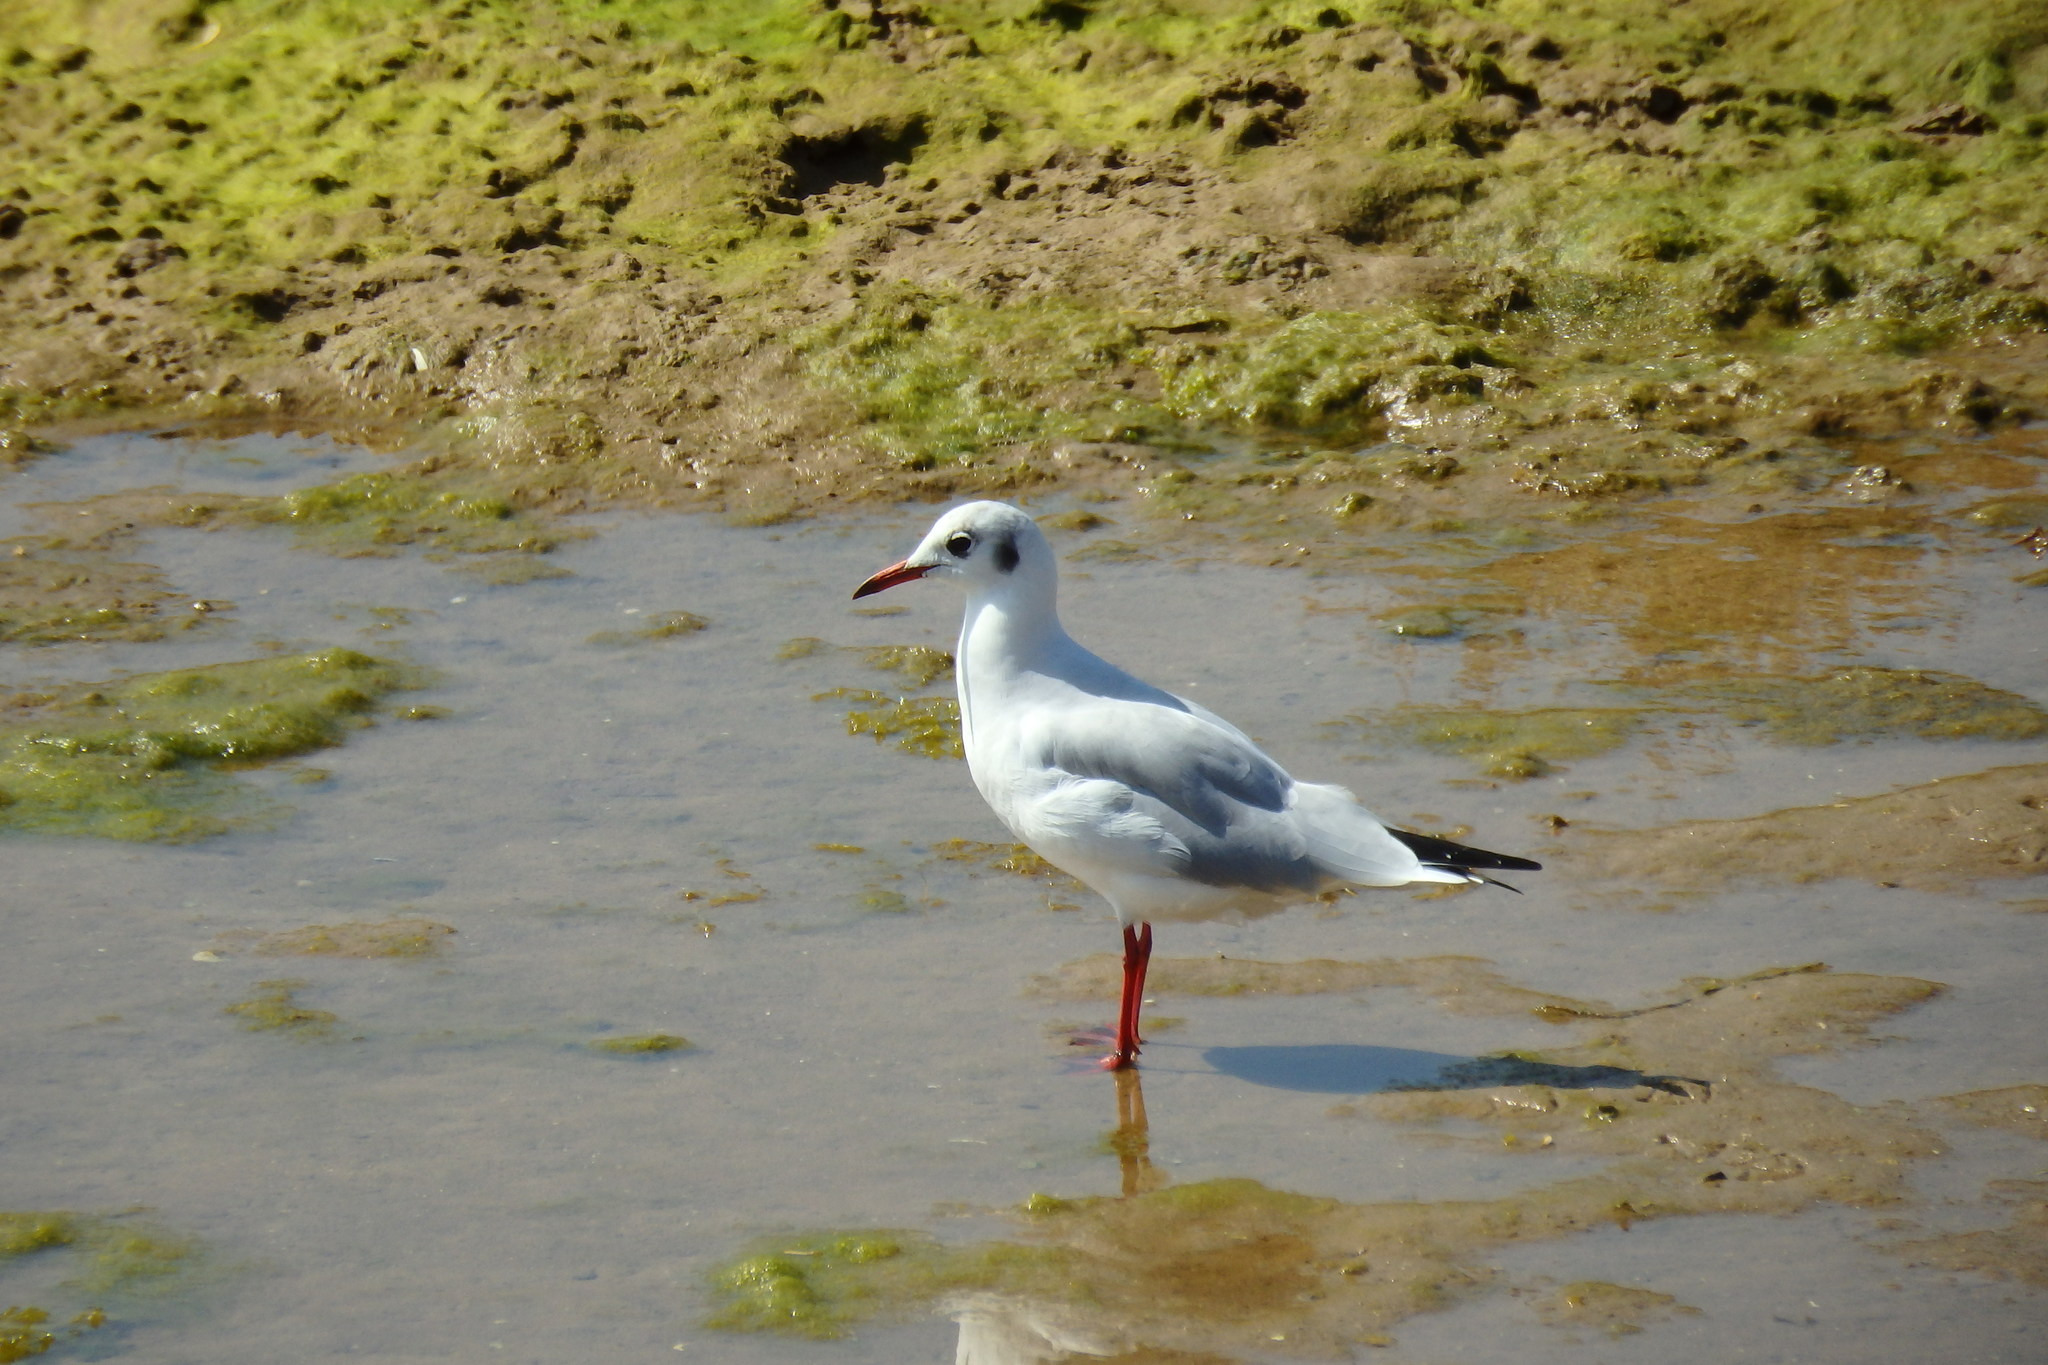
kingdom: Animalia
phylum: Chordata
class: Aves
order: Charadriiformes
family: Laridae
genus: Chroicocephalus
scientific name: Chroicocephalus ridibundus
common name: Black-headed gull
